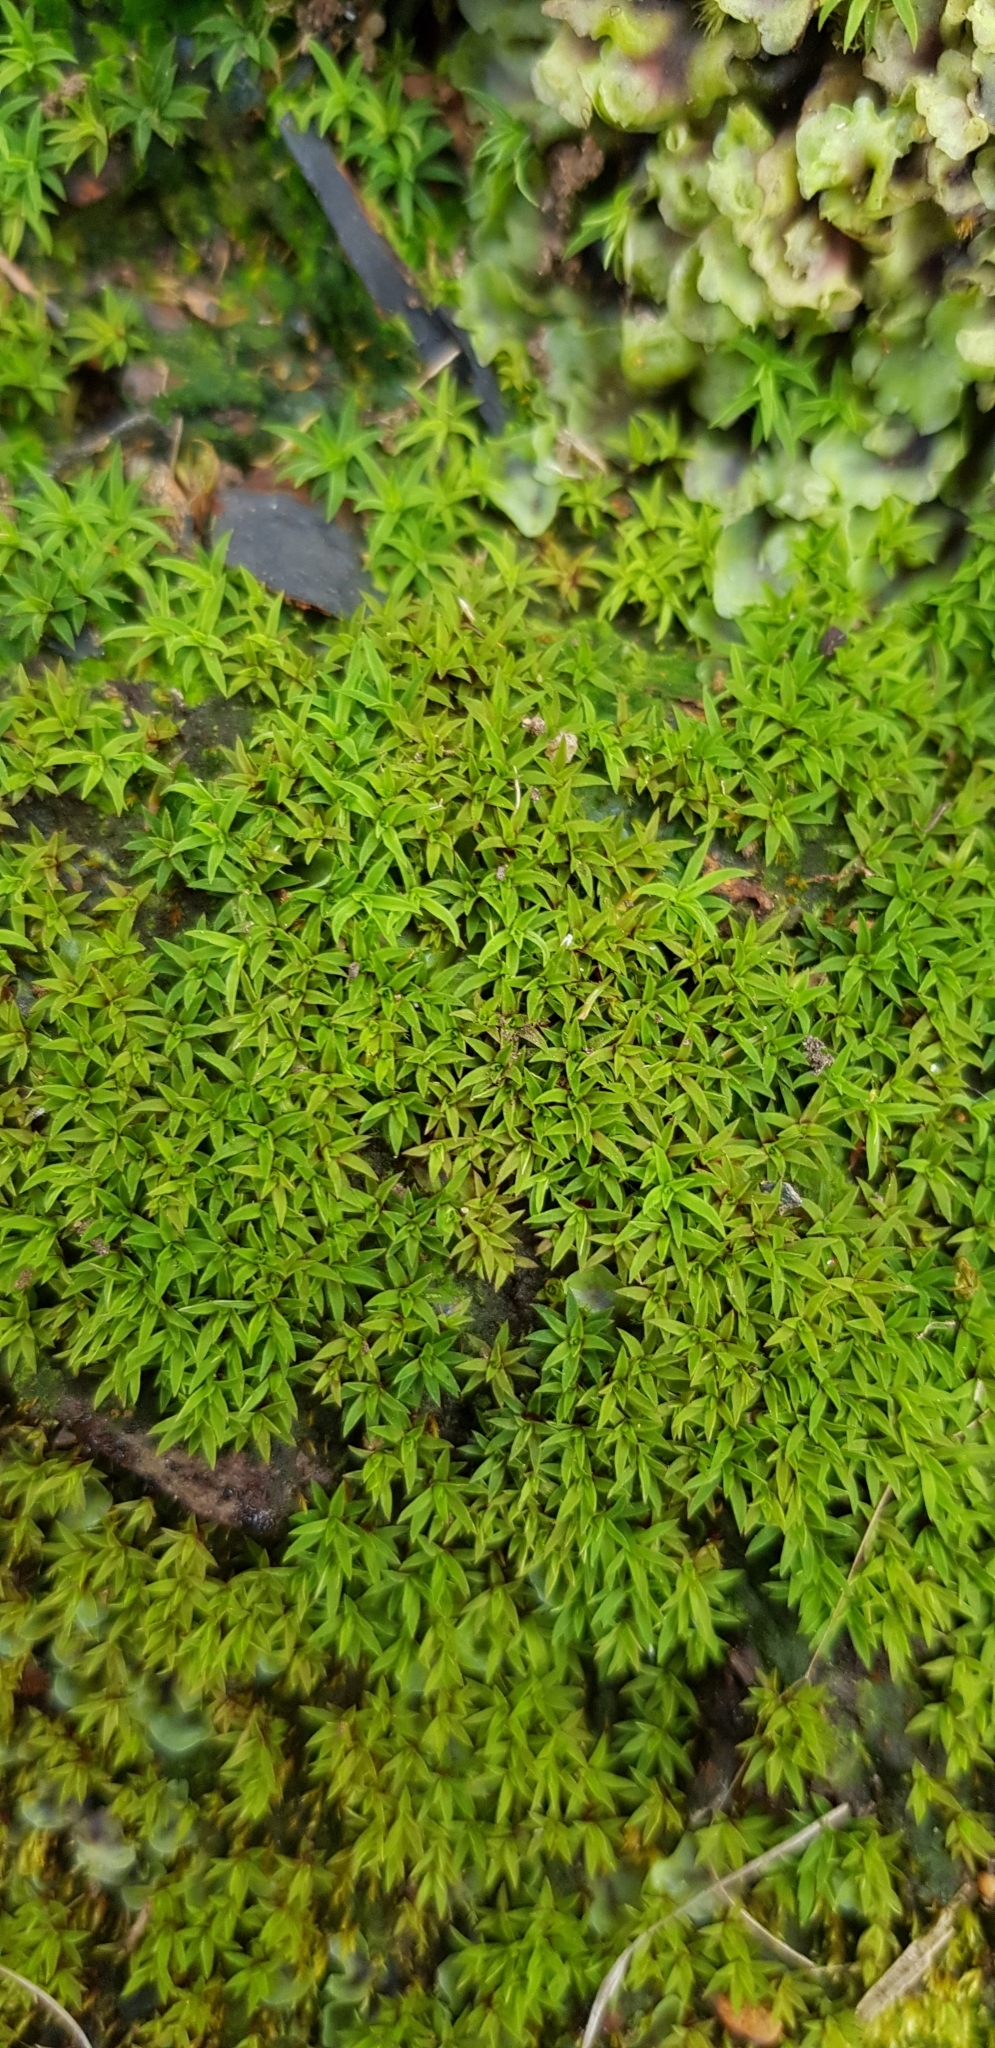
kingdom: Plantae
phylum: Bryophyta
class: Polytrichopsida
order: Polytrichales
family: Polytrichaceae
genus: Pogonatum
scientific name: Pogonatum aloides
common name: Aloe haircap
